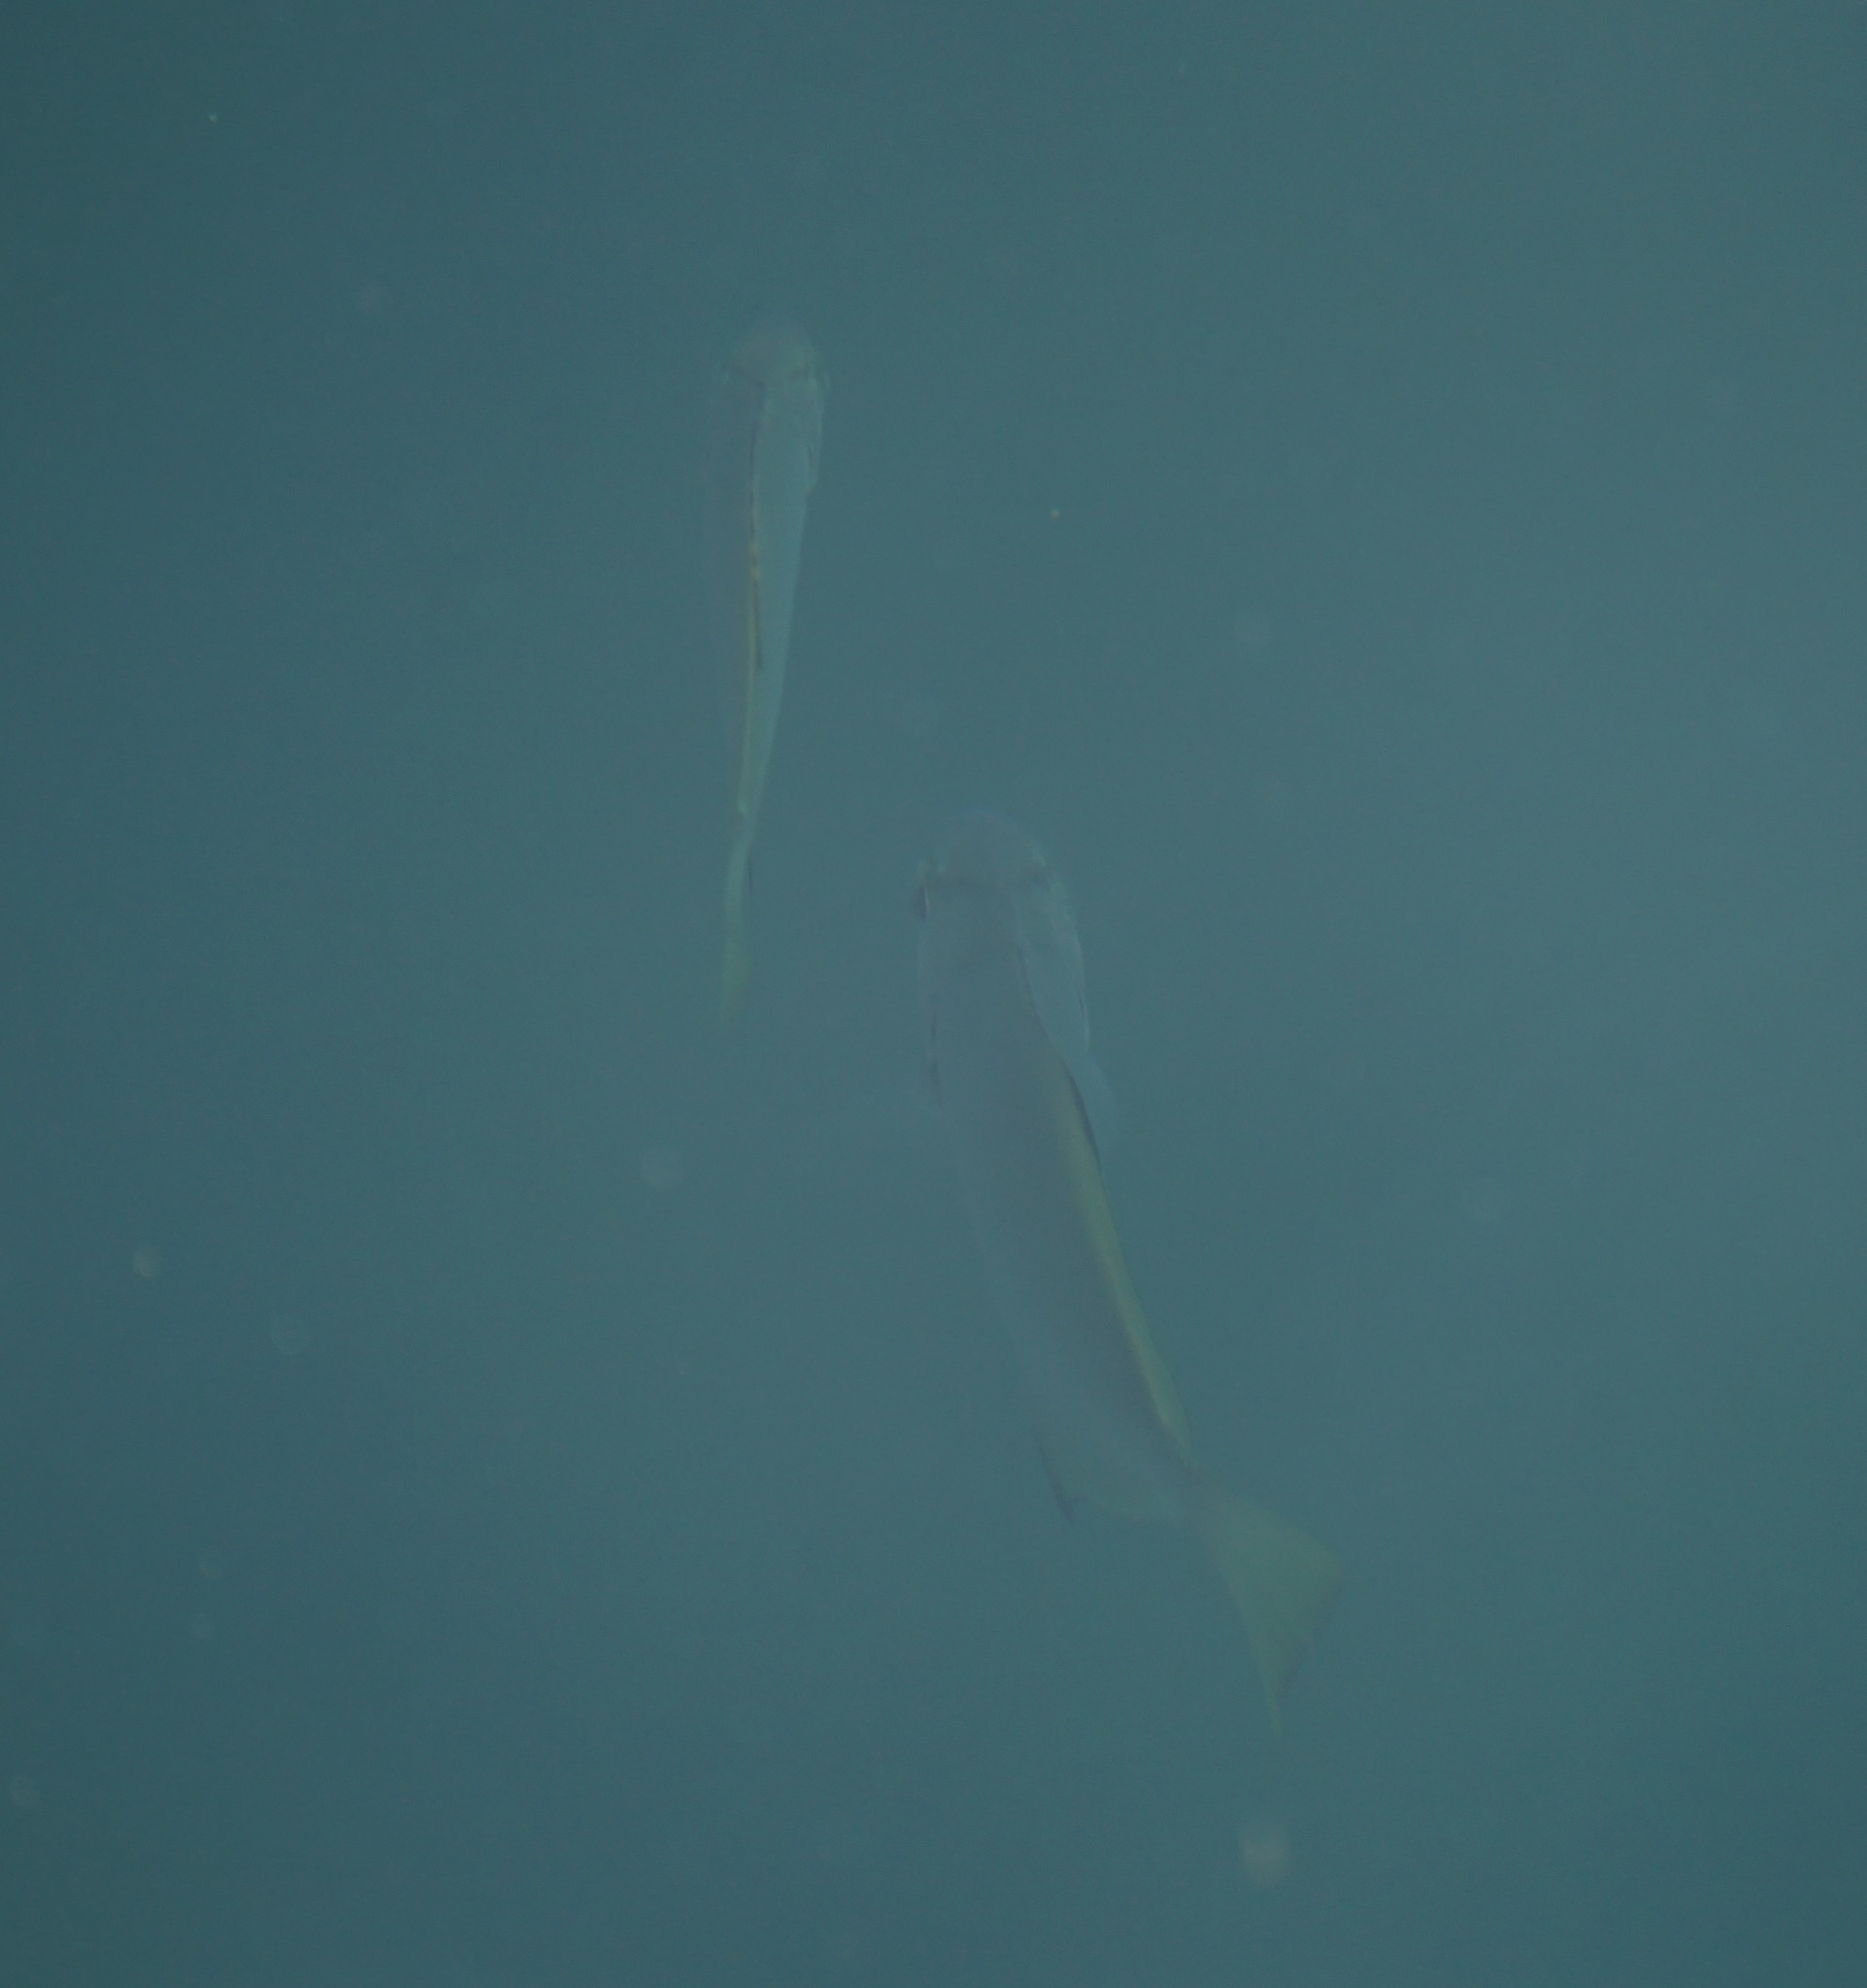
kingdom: Animalia
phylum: Chordata
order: Perciformes
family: Monodactylidae
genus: Monodactylus
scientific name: Monodactylus argenteus
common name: Silver moony
